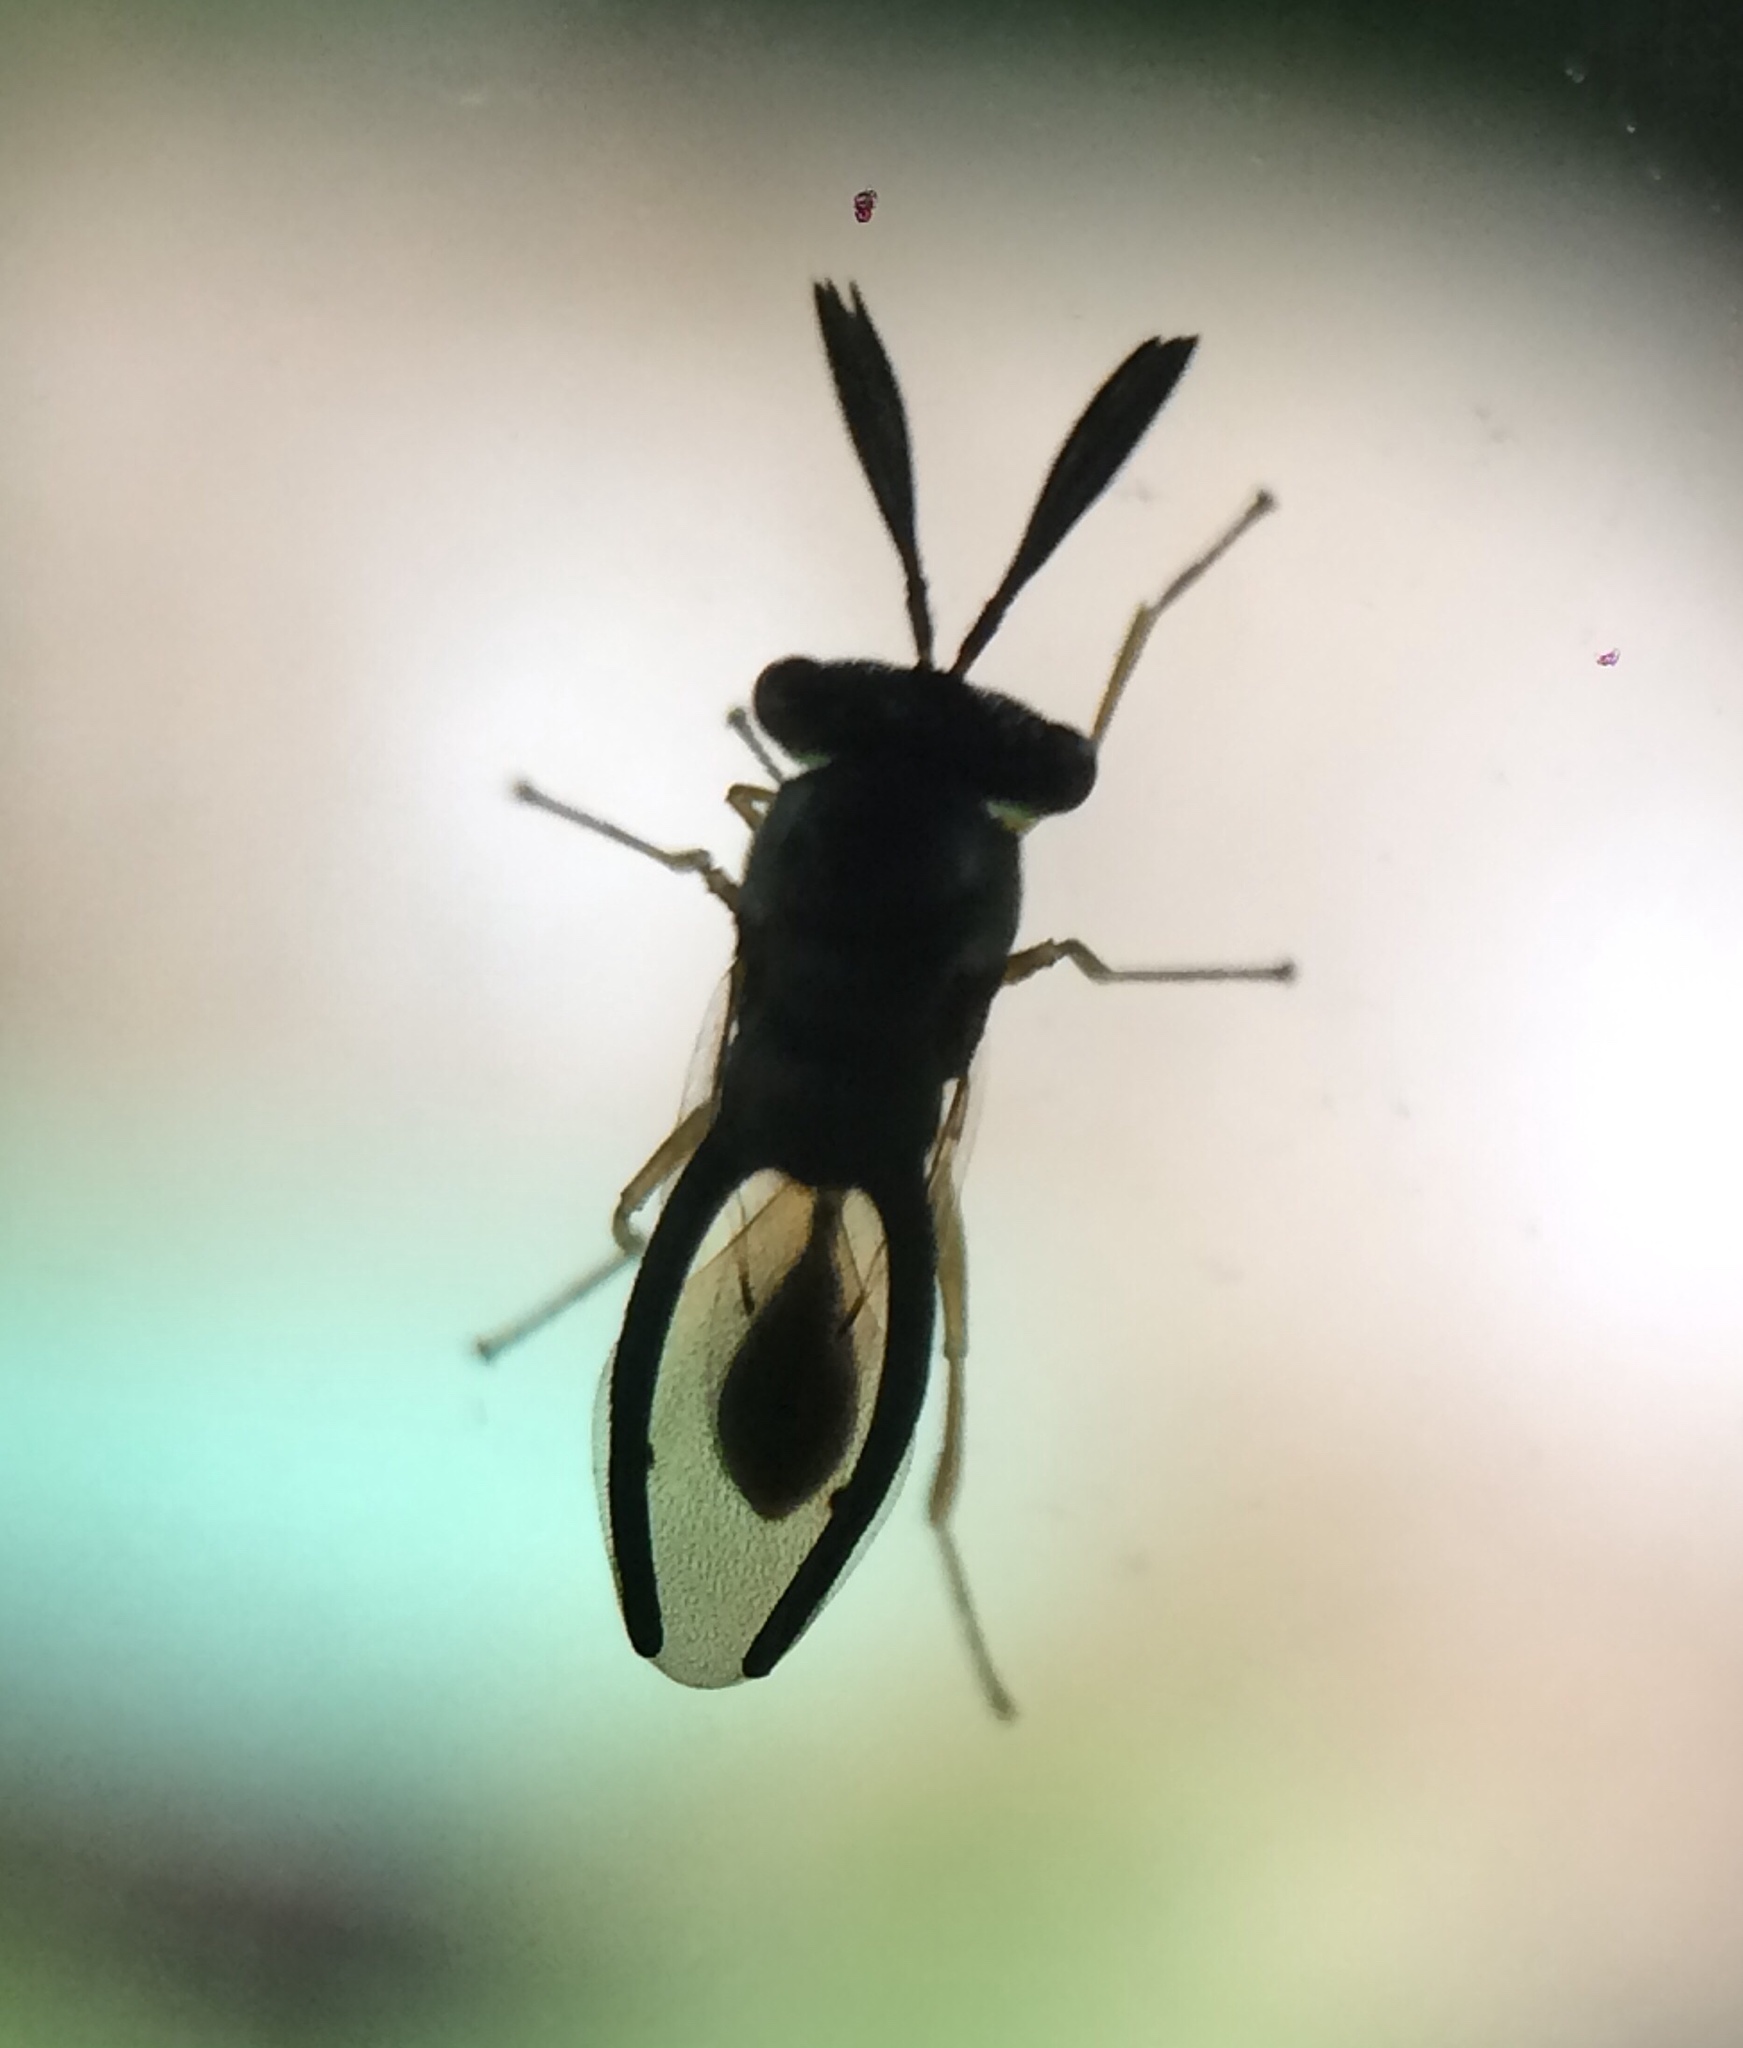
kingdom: Animalia
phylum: Arthropoda
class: Insecta
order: Hymenoptera
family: Eucharitidae
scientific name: Eucharitidae
